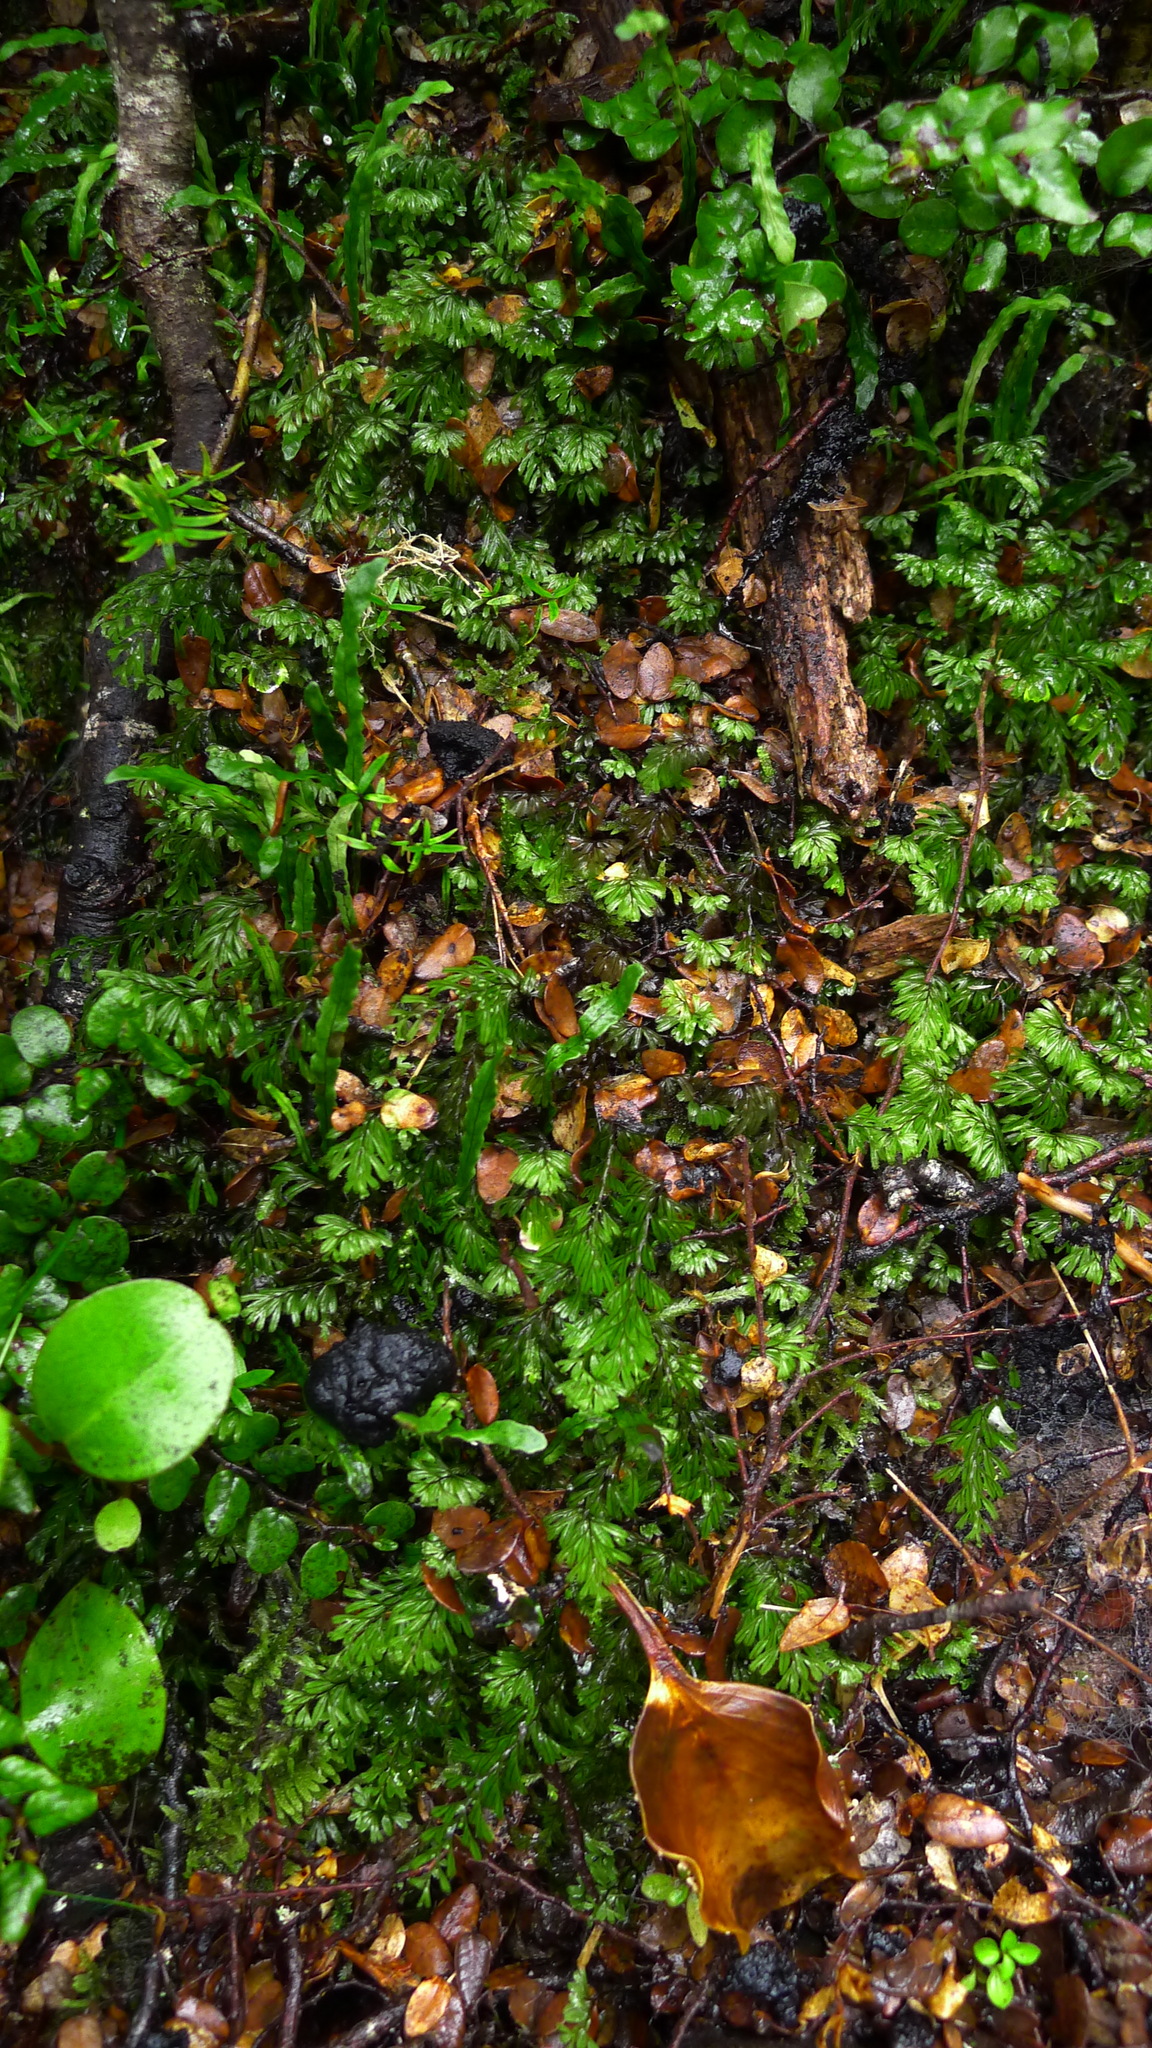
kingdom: Plantae
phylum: Tracheophyta
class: Polypodiopsida
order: Hymenophyllales
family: Hymenophyllaceae
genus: Hymenophyllum
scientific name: Hymenophyllum peltatum
